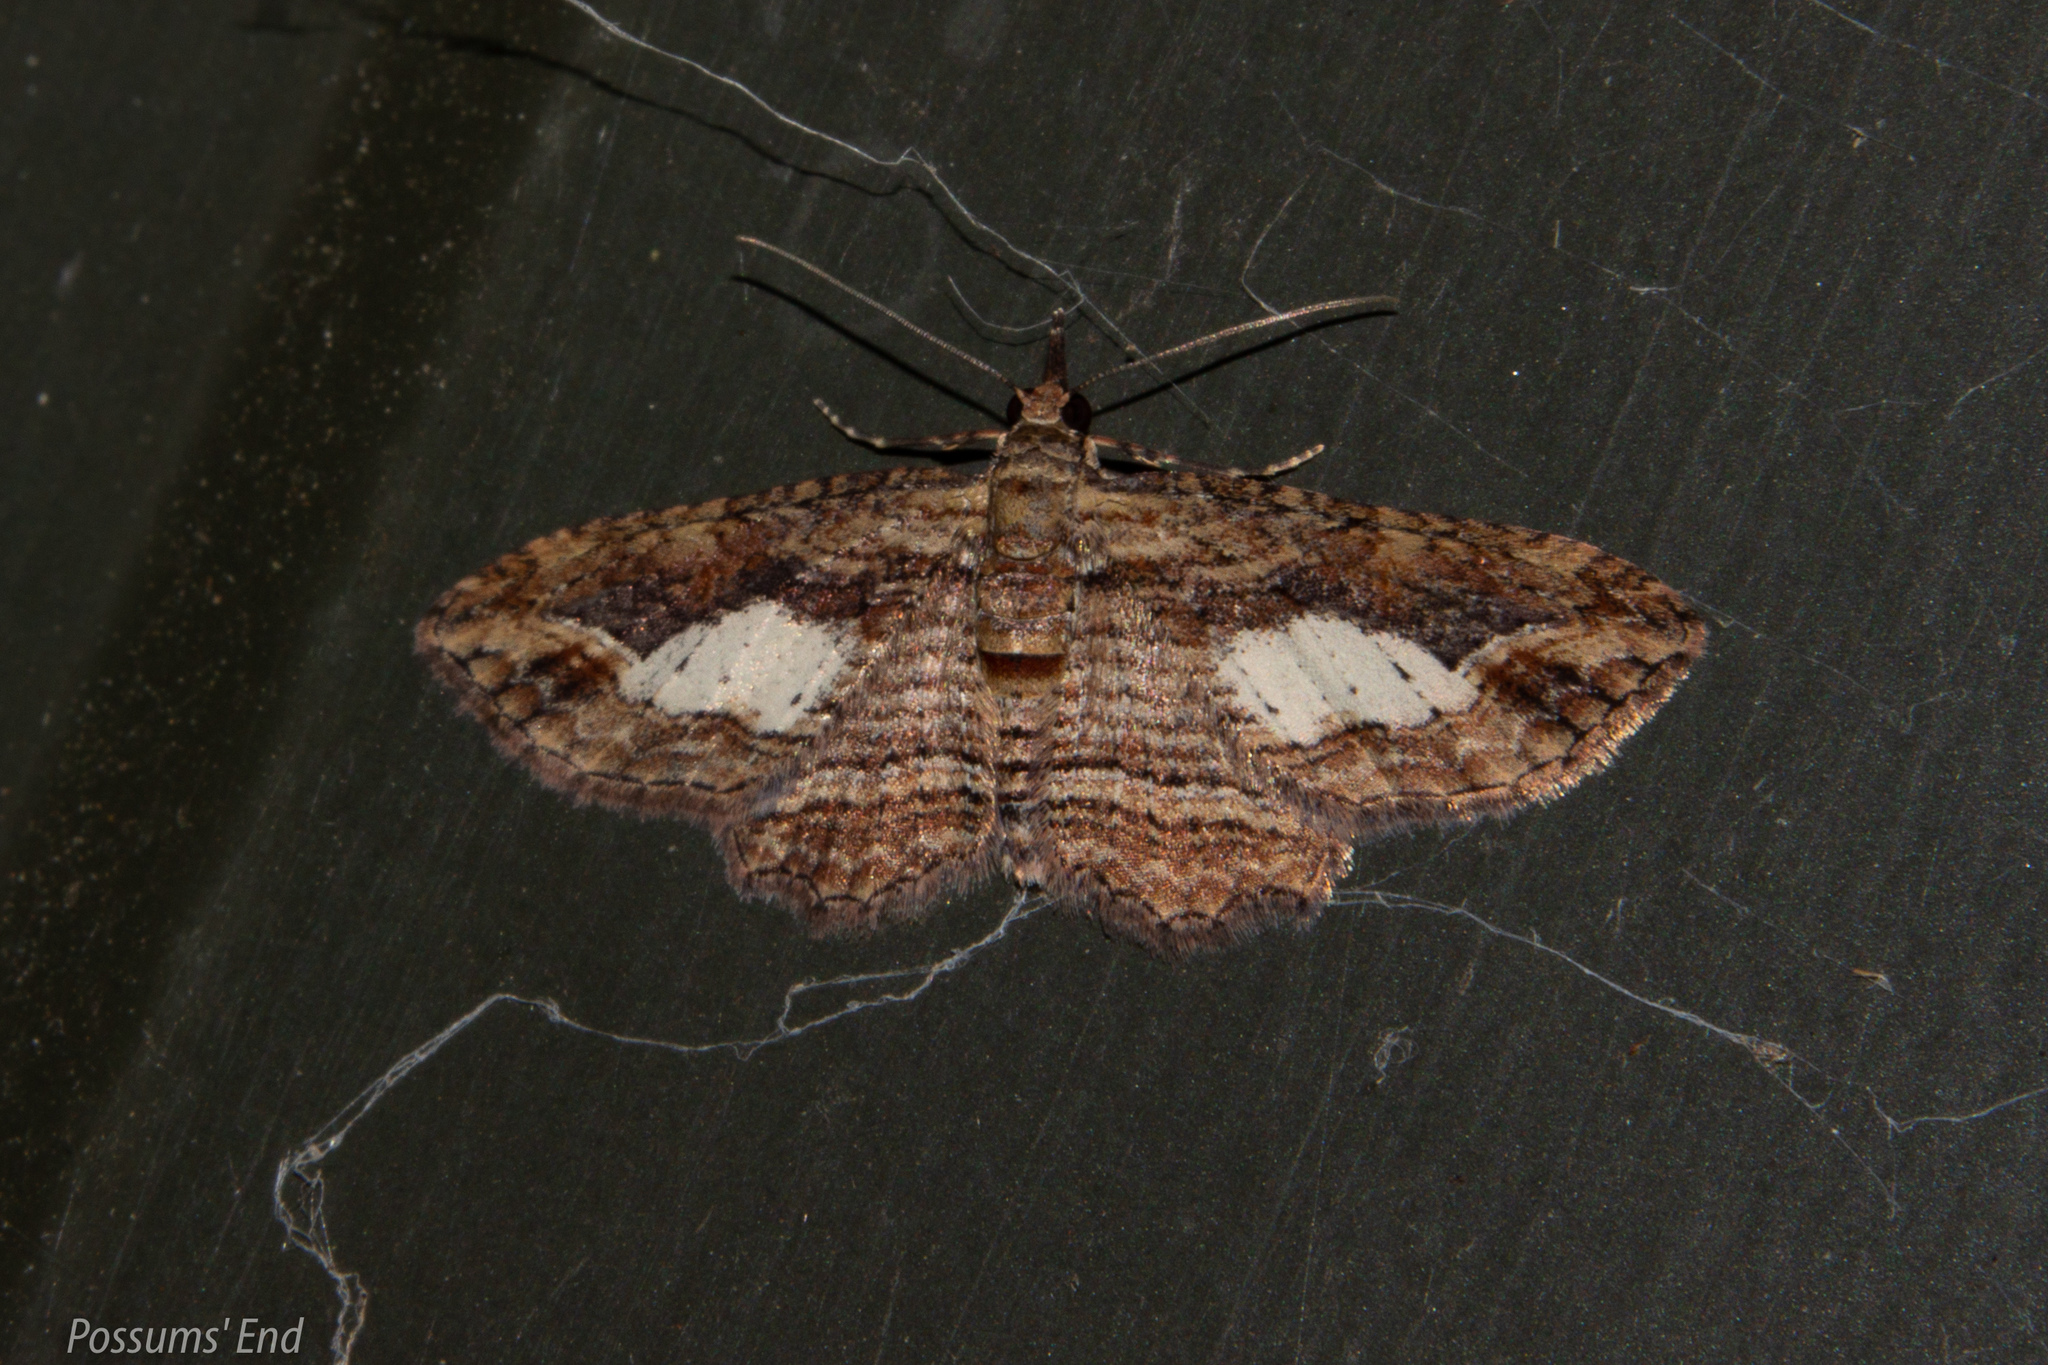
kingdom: Animalia
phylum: Arthropoda
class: Insecta
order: Lepidoptera
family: Geometridae
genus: Chloroclystis
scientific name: Chloroclystis filata
